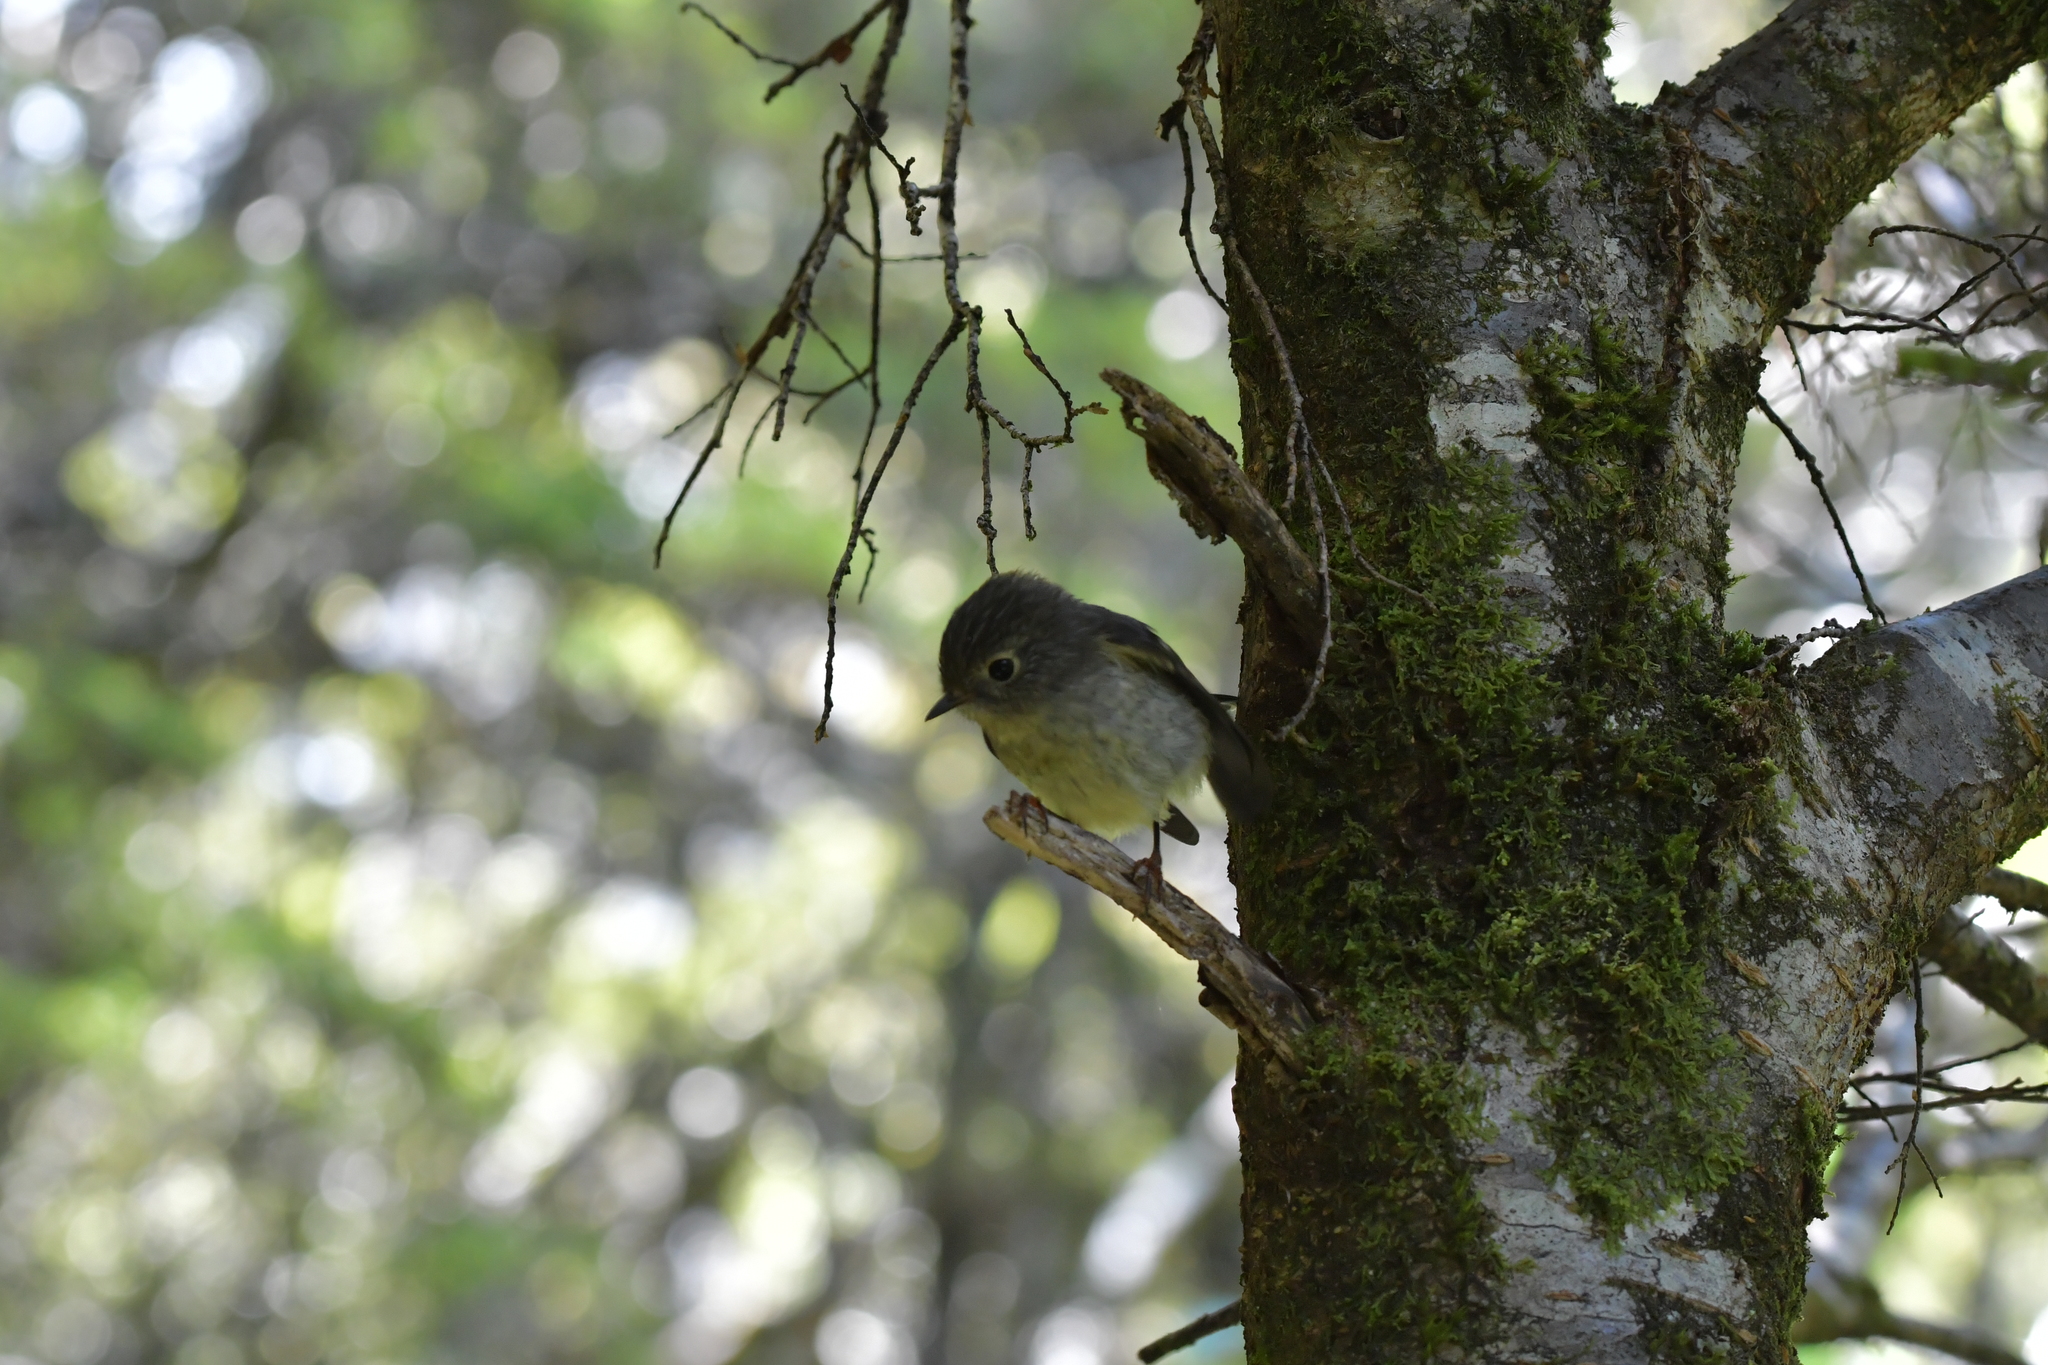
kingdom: Animalia
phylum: Chordata
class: Aves
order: Passeriformes
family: Petroicidae
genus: Petroica
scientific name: Petroica macrocephala
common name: Tomtit
